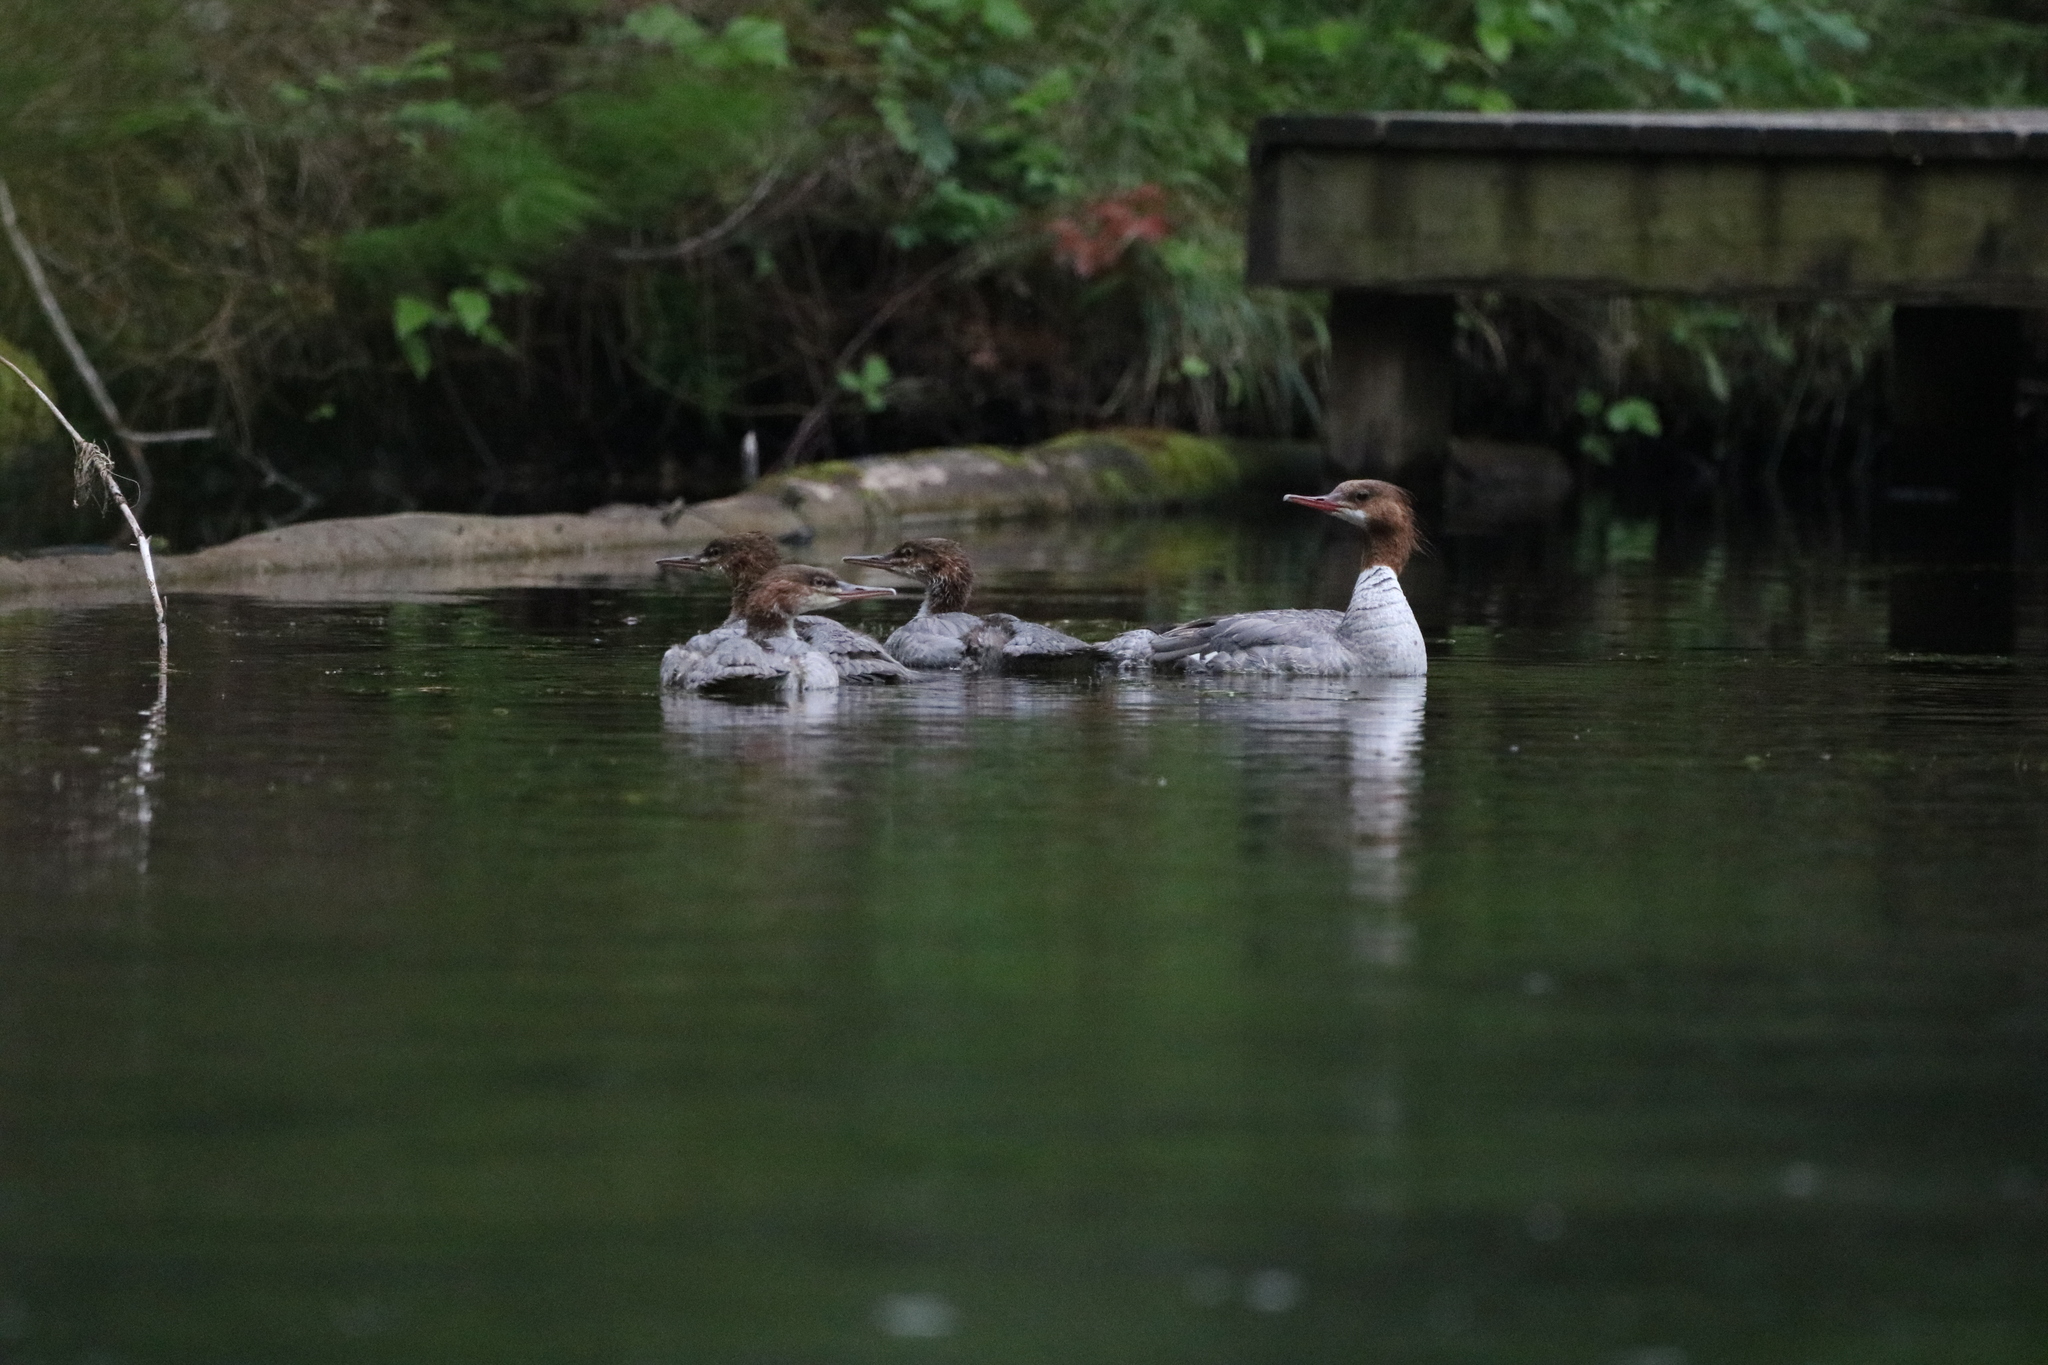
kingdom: Animalia
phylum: Chordata
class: Aves
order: Anseriformes
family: Anatidae
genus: Mergus
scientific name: Mergus merganser
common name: Common merganser
